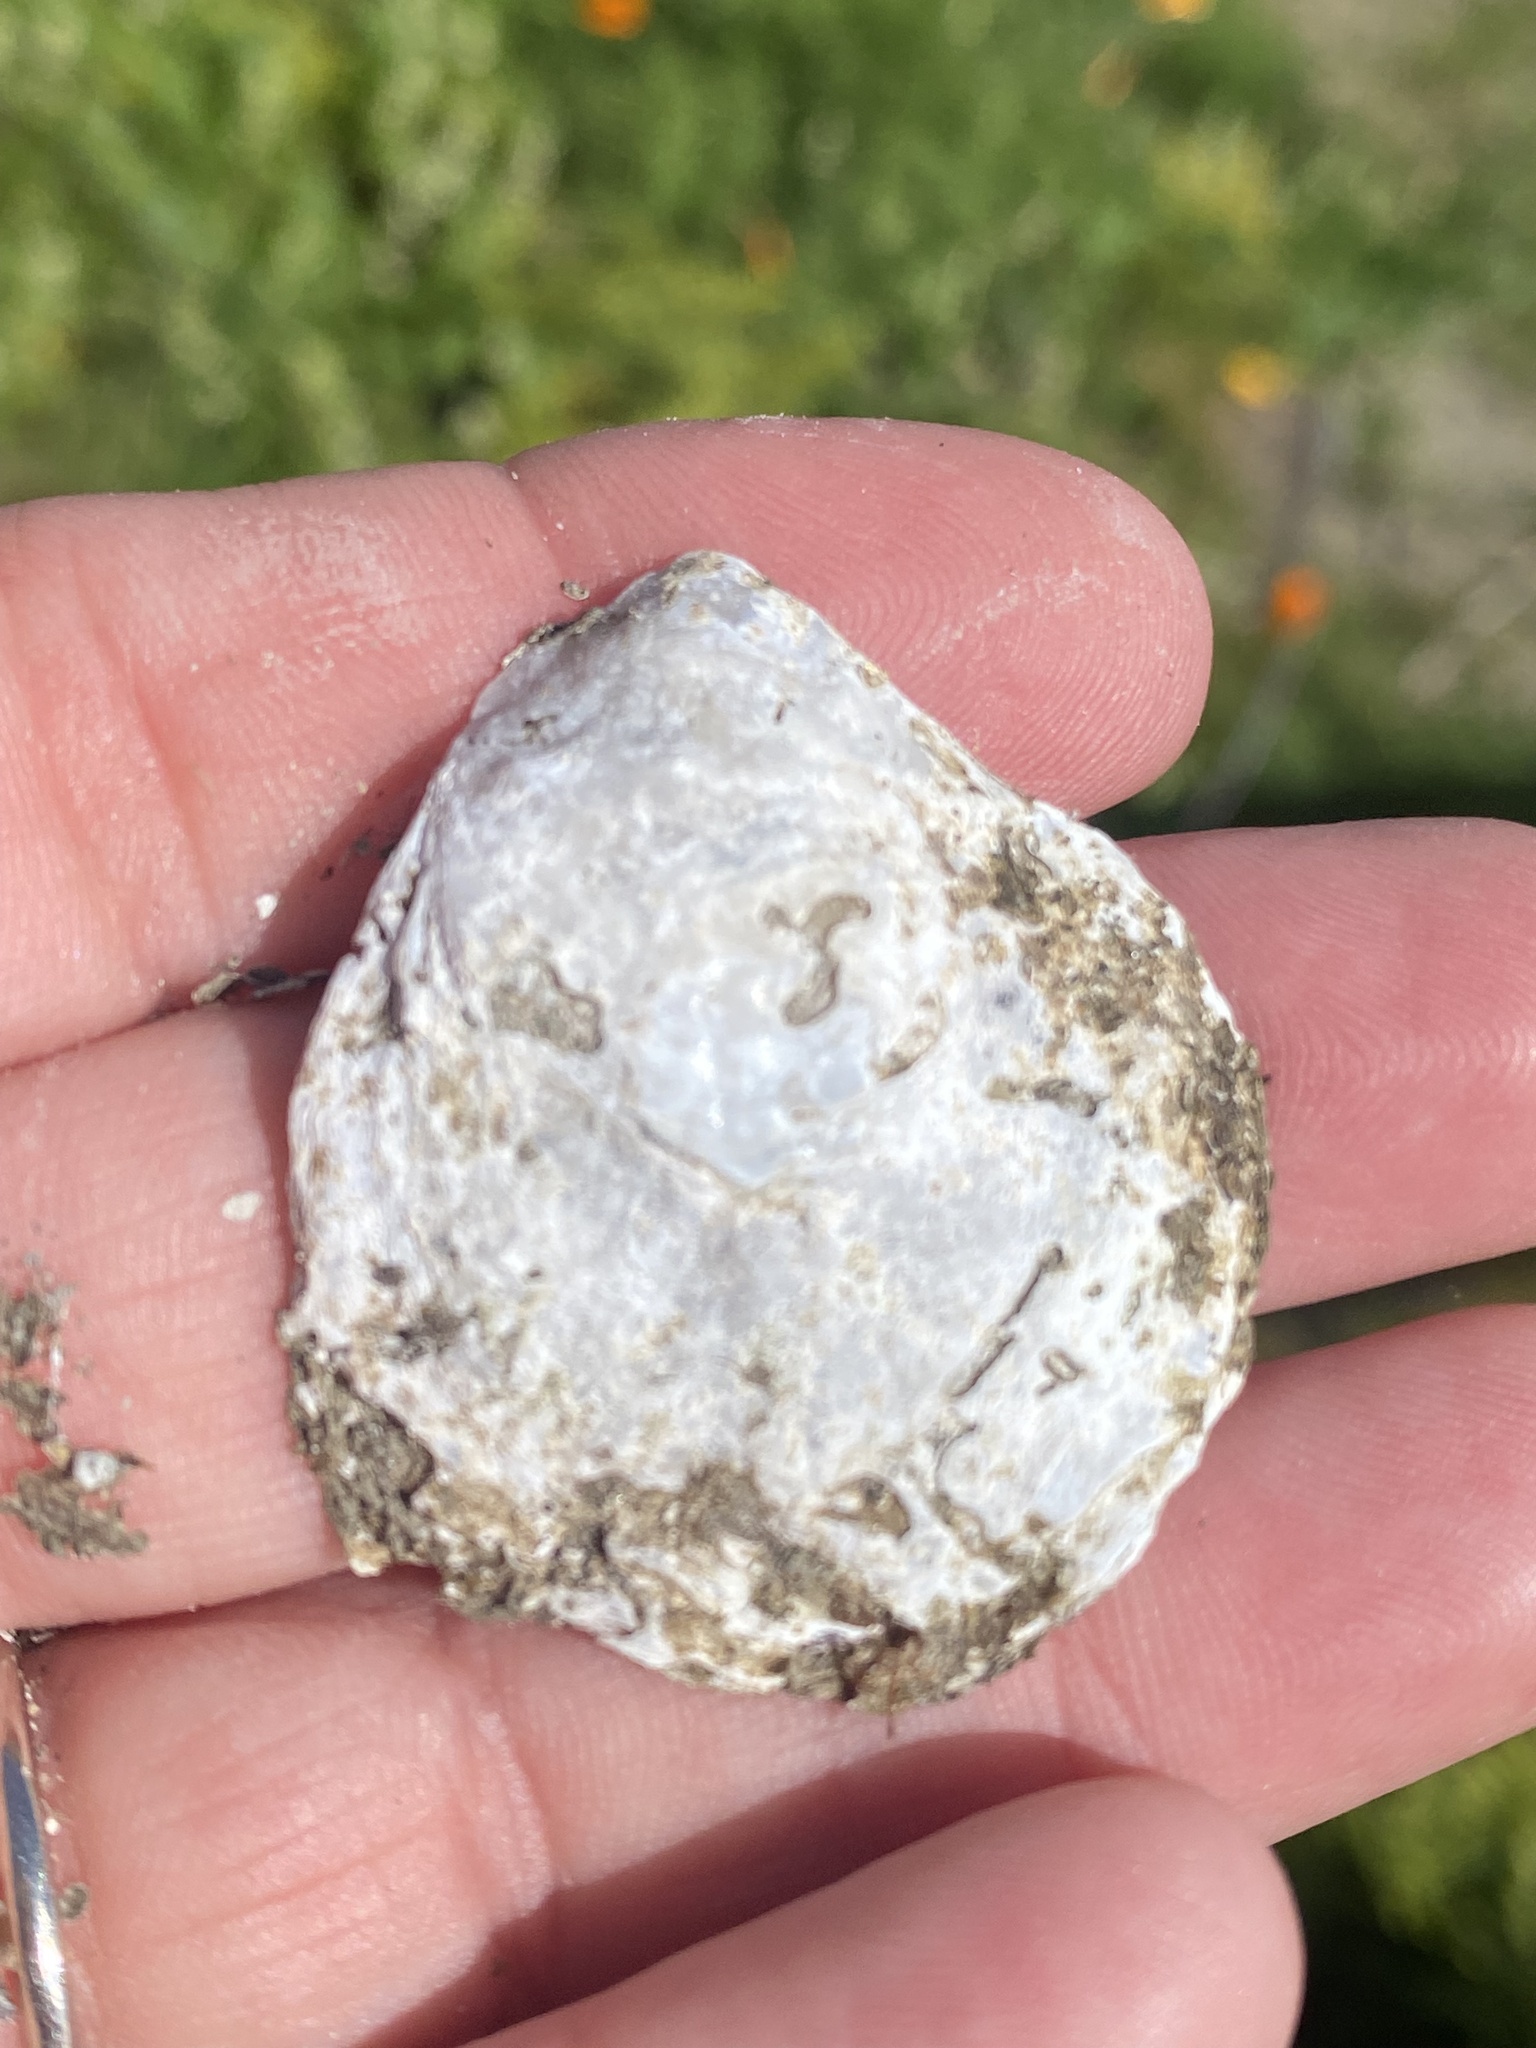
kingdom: Animalia
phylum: Mollusca
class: Bivalvia
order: Ostreida
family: Ostreidae
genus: Ostrea
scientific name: Ostrea lurida
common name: Olympia flat oyster
